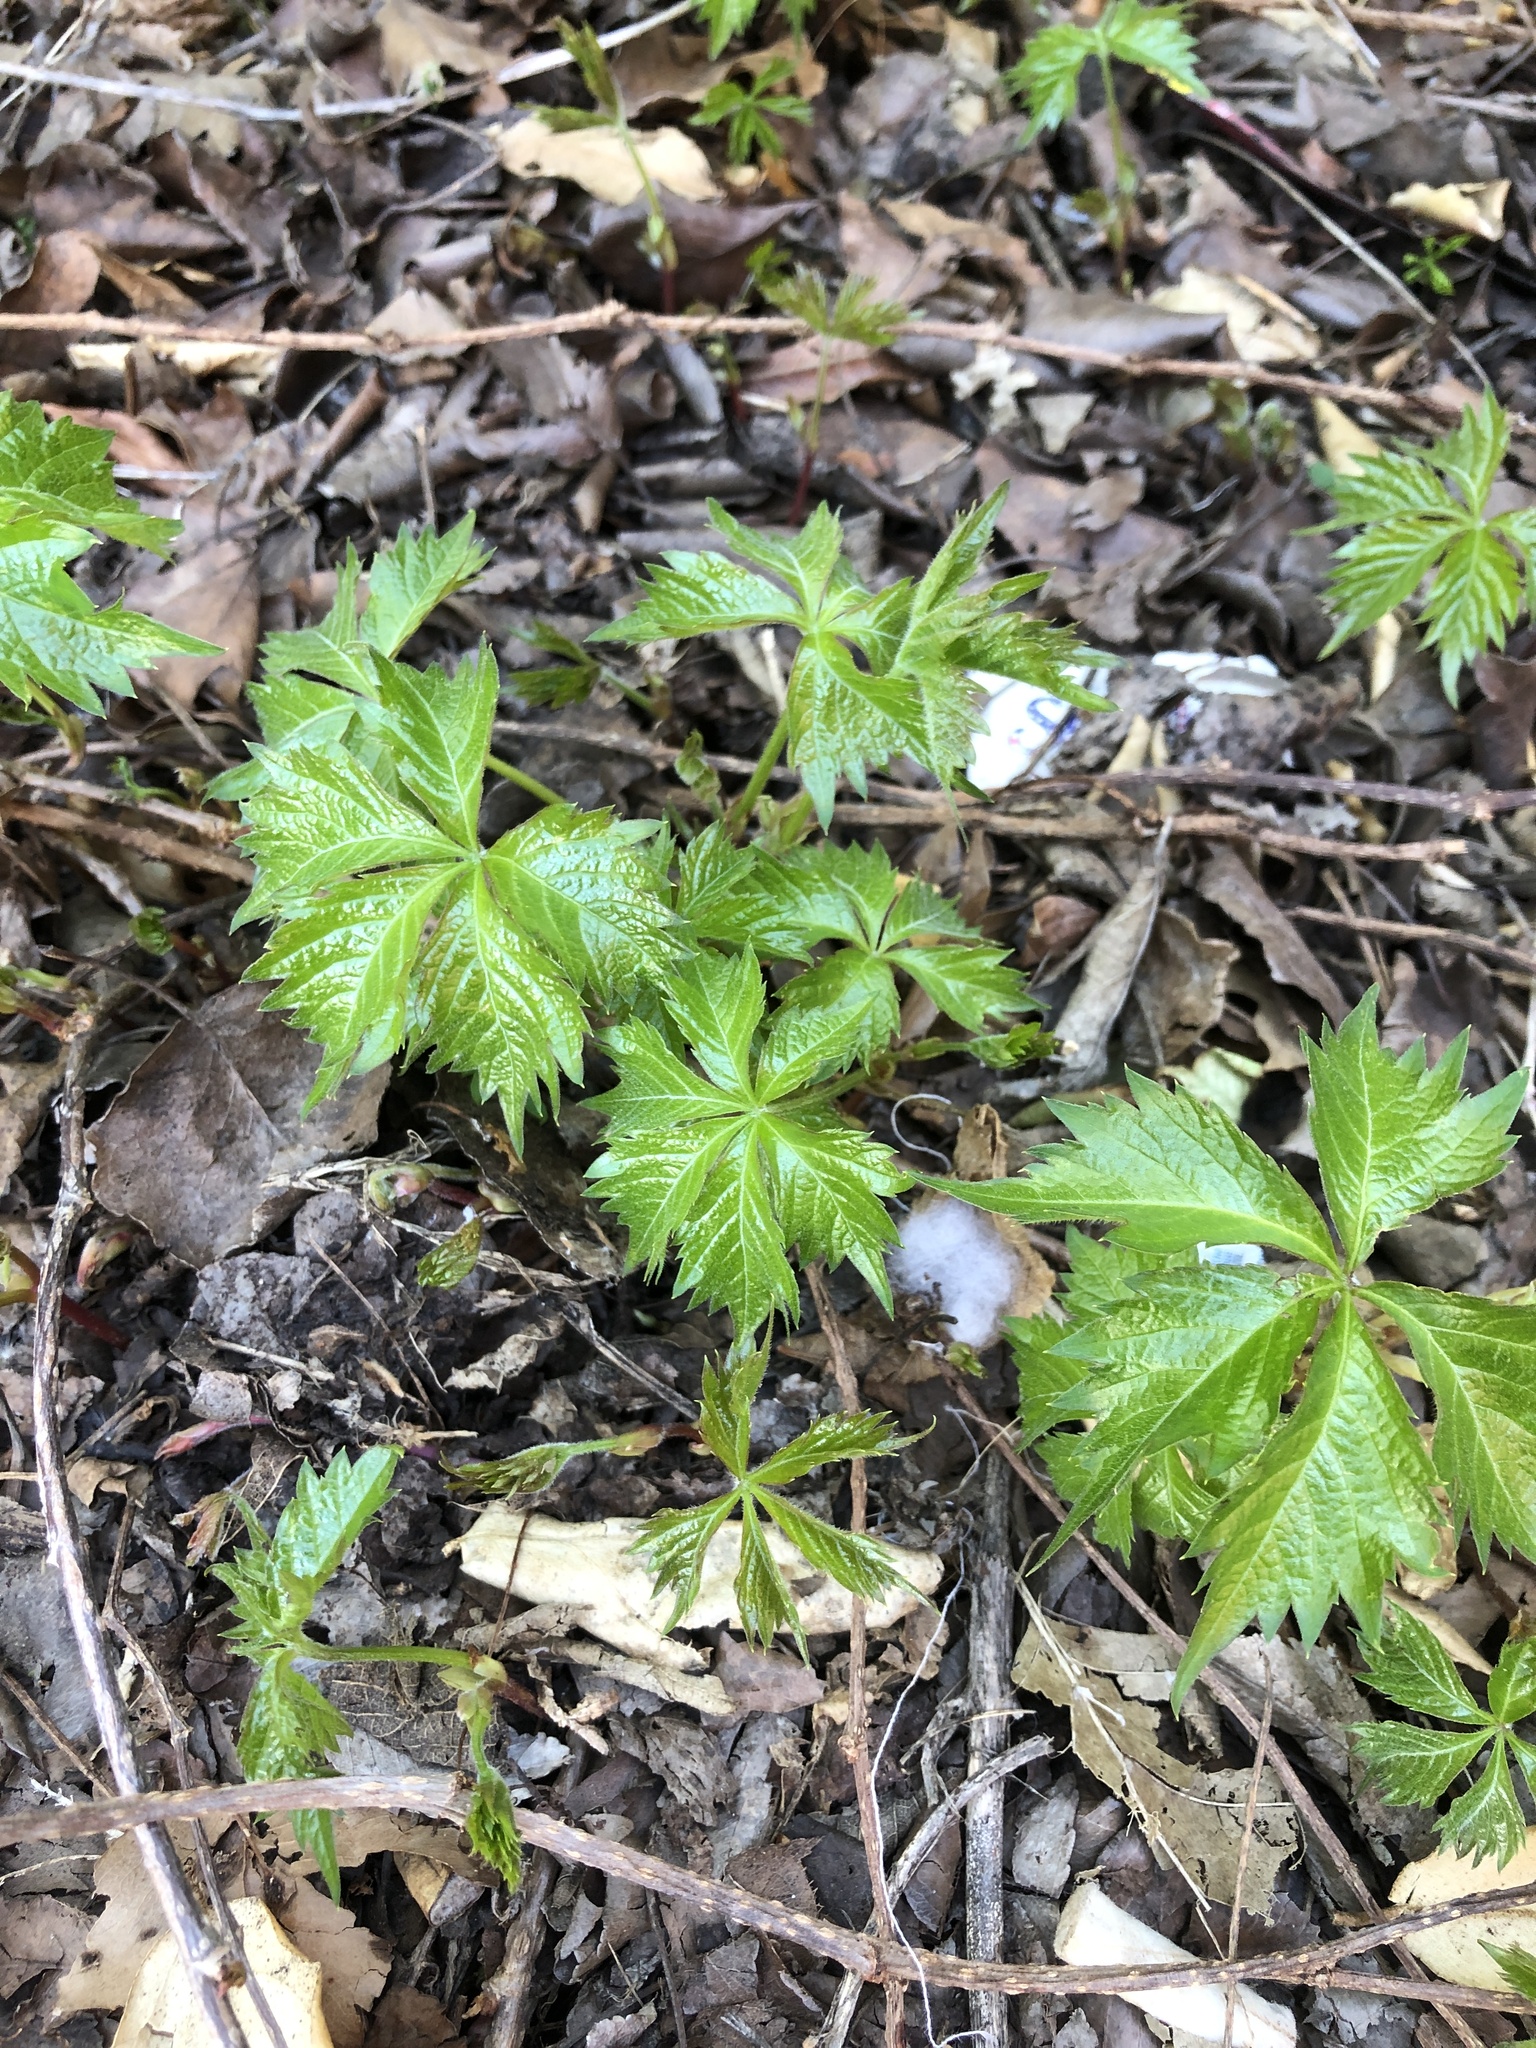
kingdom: Plantae
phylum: Tracheophyta
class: Magnoliopsida
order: Vitales
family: Vitaceae
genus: Parthenocissus
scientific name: Parthenocissus quinquefolia
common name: Virginia-creeper
